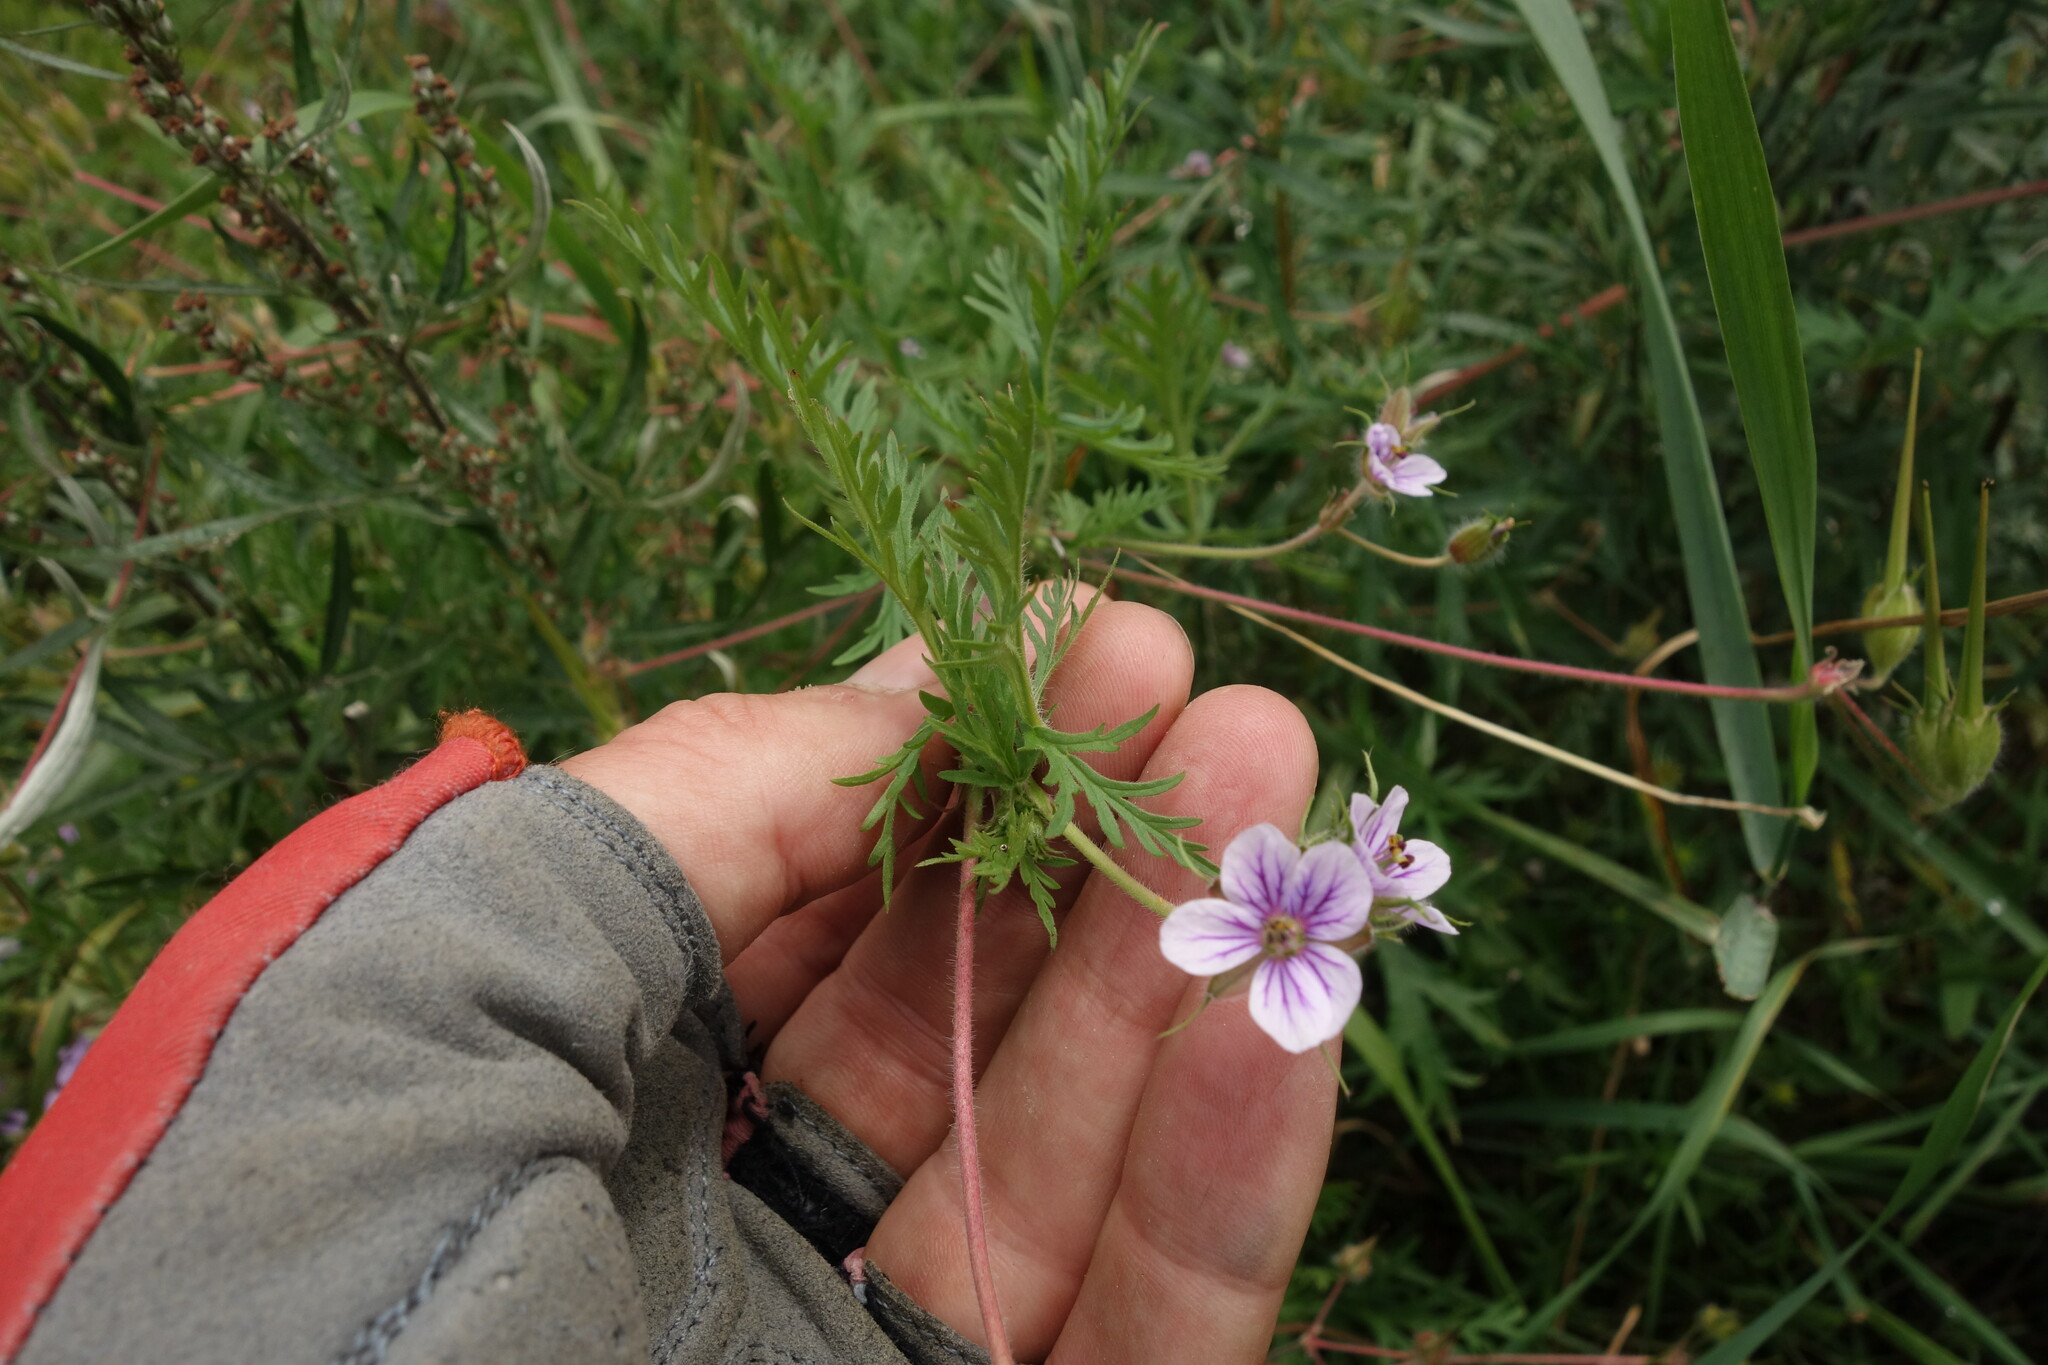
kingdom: Plantae
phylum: Tracheophyta
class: Magnoliopsida
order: Geraniales
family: Geraniaceae
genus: Erodium
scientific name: Erodium stephanianum
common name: Stephen's stork's bill
